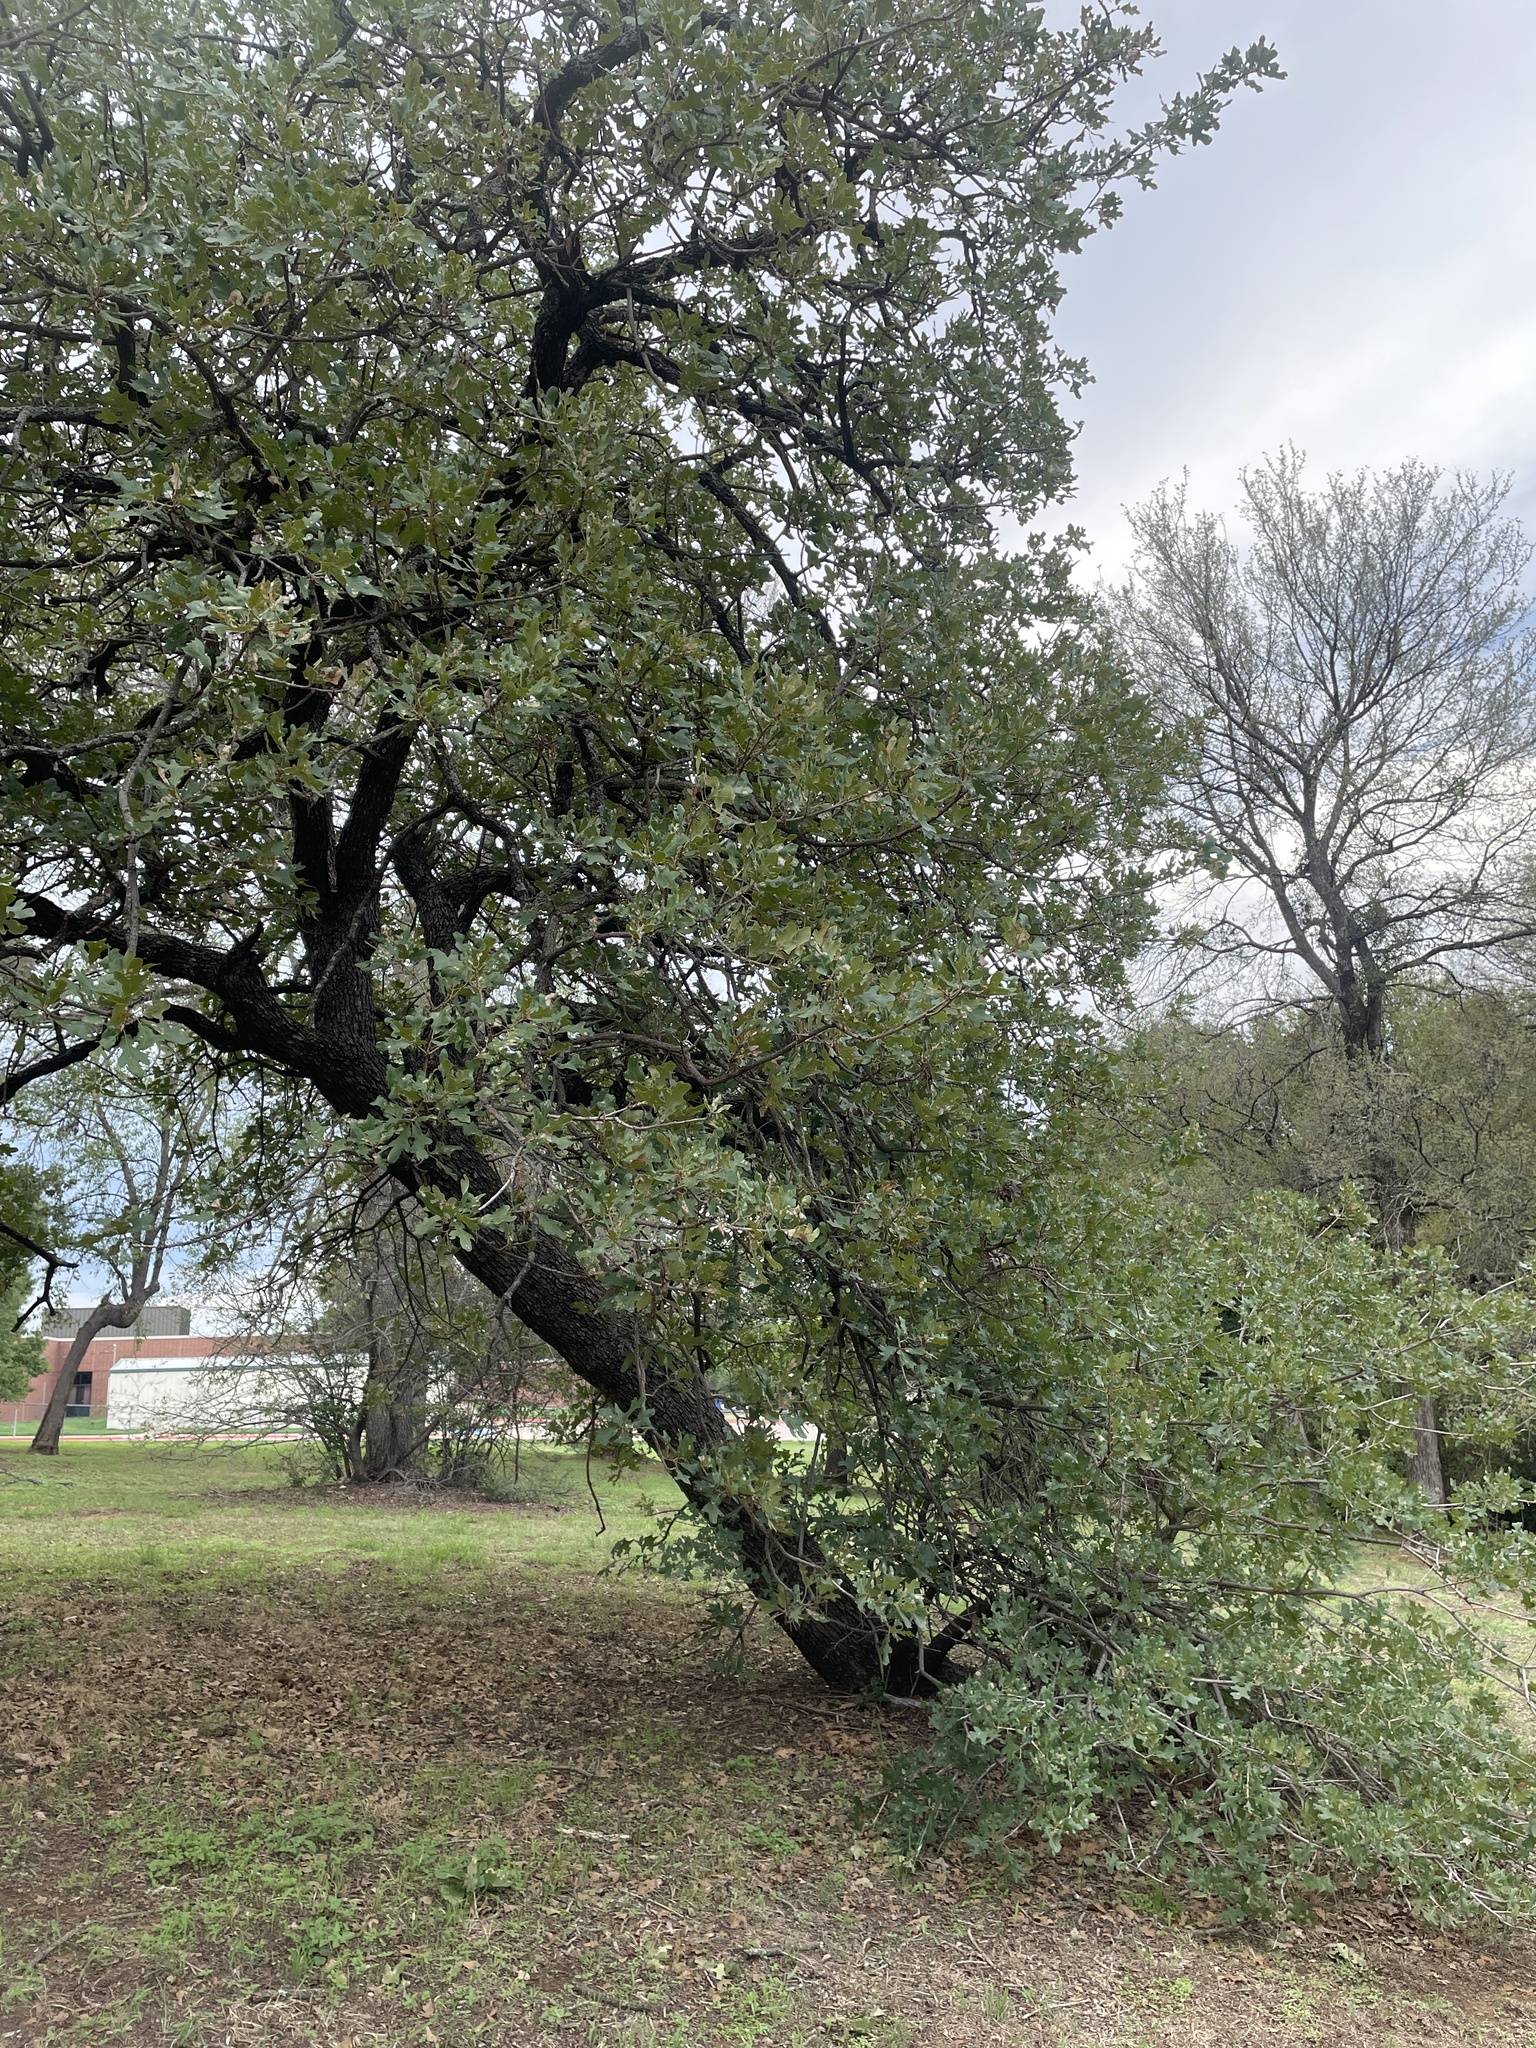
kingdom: Plantae
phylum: Tracheophyta
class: Magnoliopsida
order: Fagales
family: Fagaceae
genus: Quercus
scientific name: Quercus stellata
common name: Post oak
